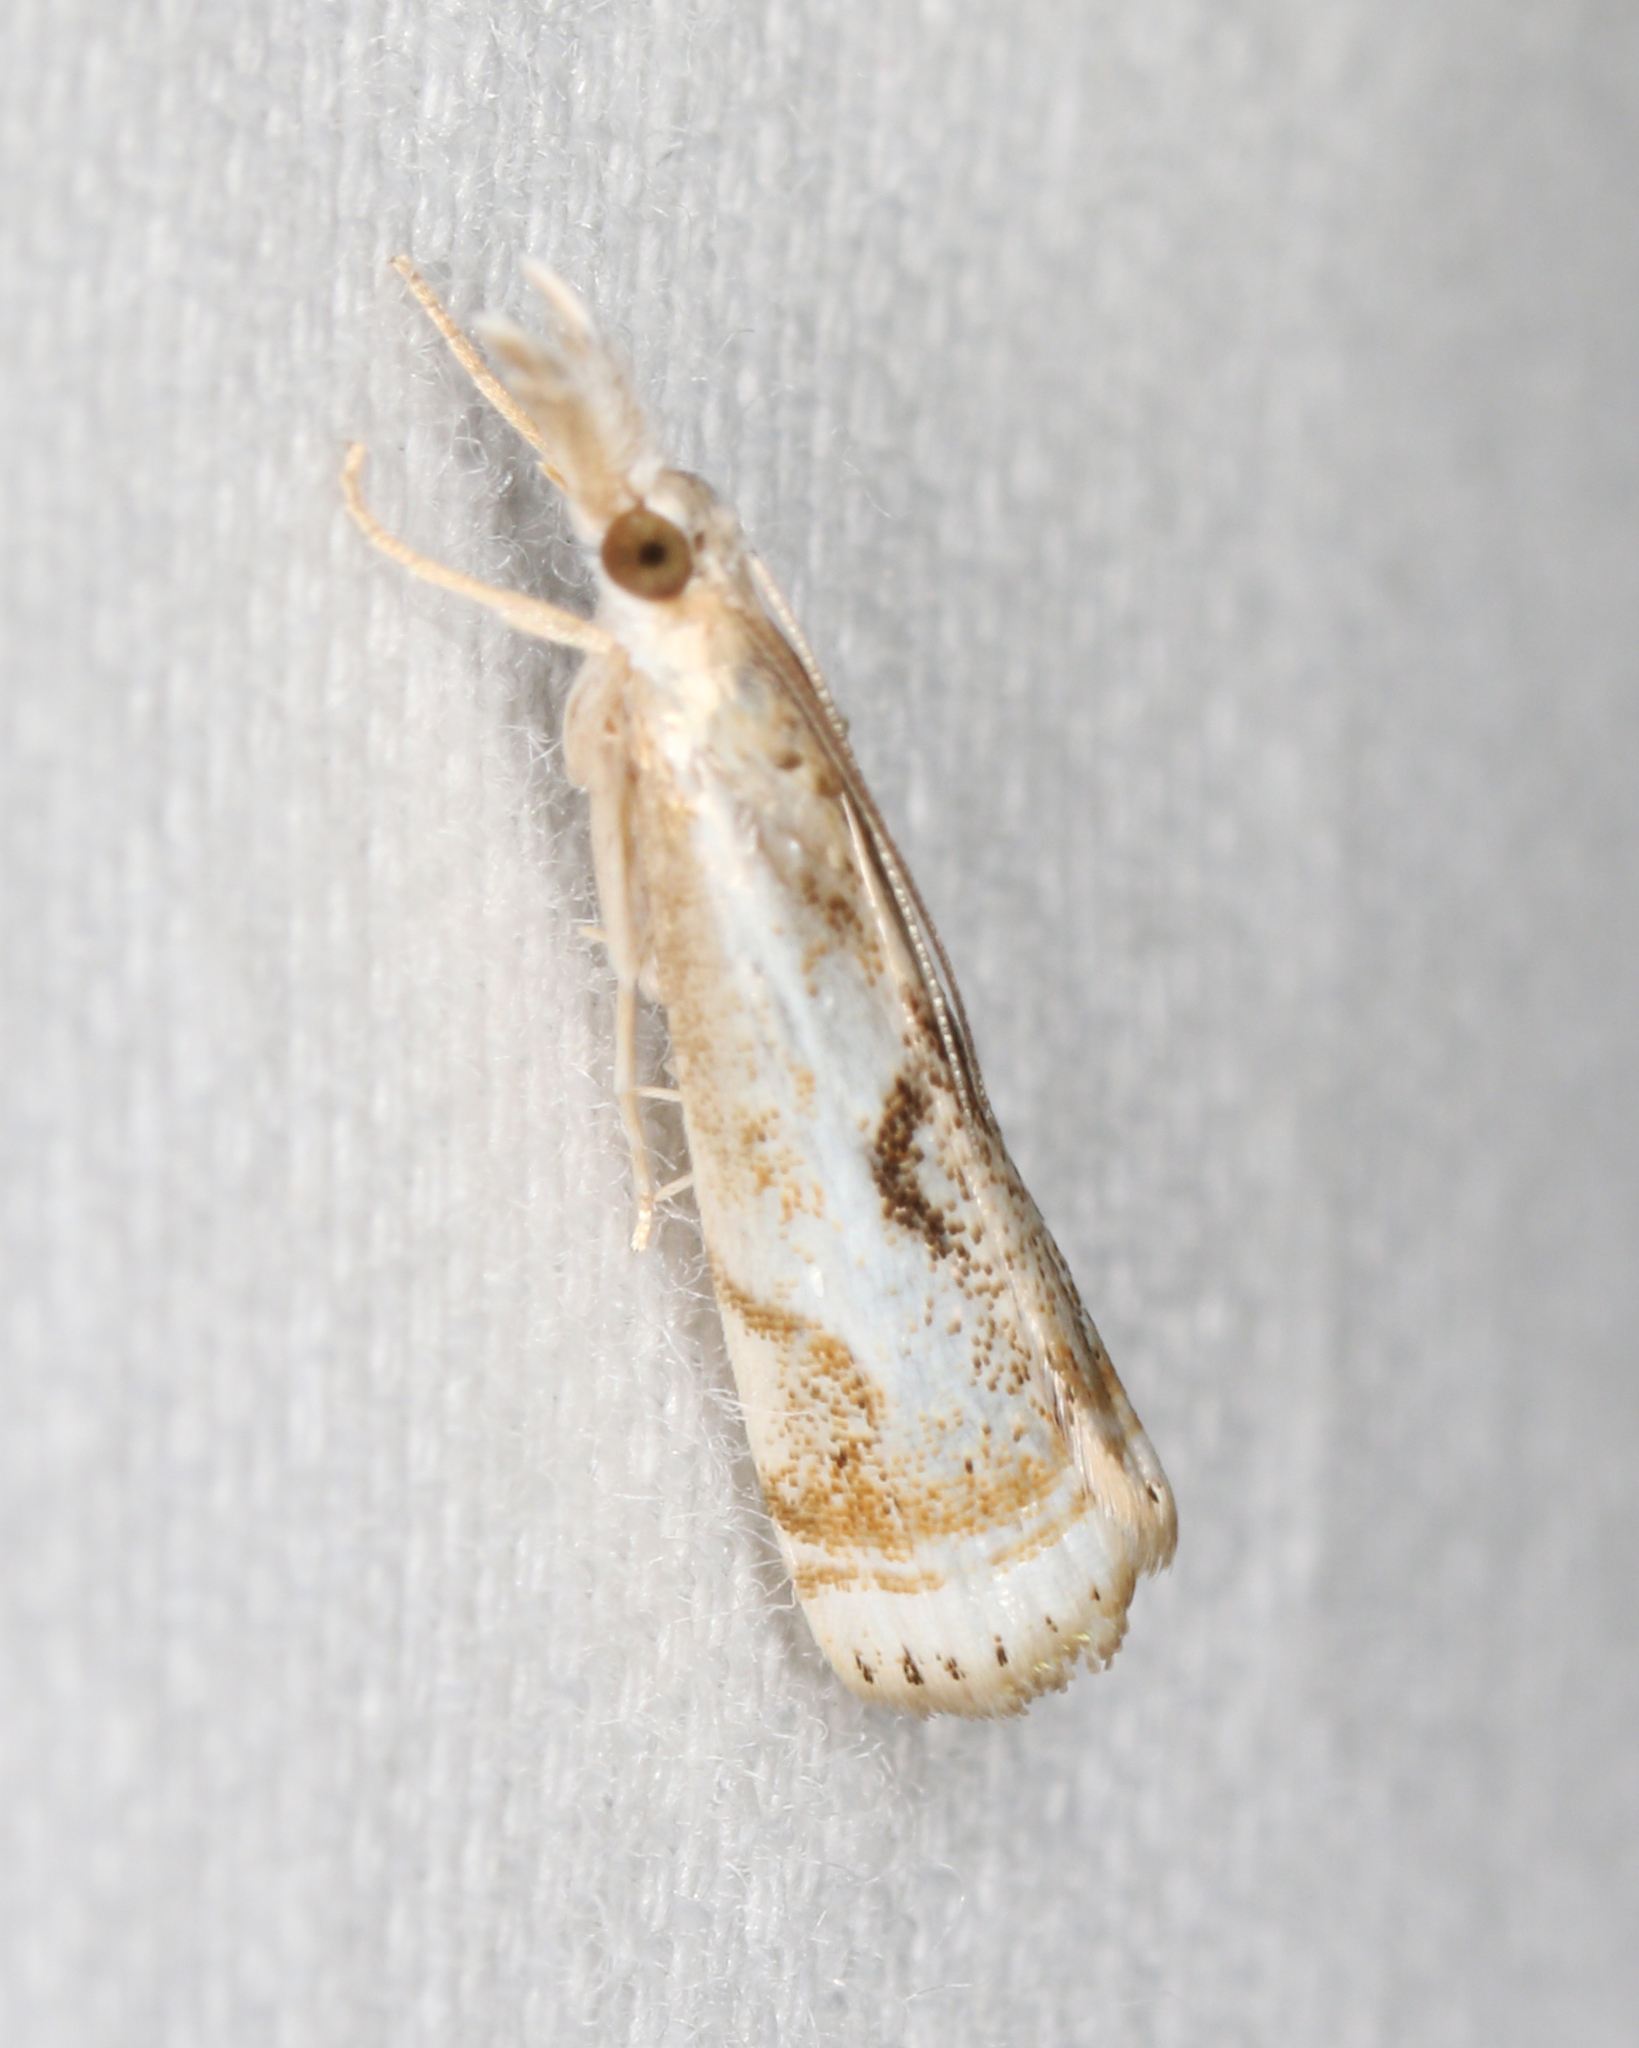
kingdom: Animalia
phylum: Arthropoda
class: Insecta
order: Lepidoptera
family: Crambidae
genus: Microcrambus
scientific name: Microcrambus elegans
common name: Elegant grass-veneer
